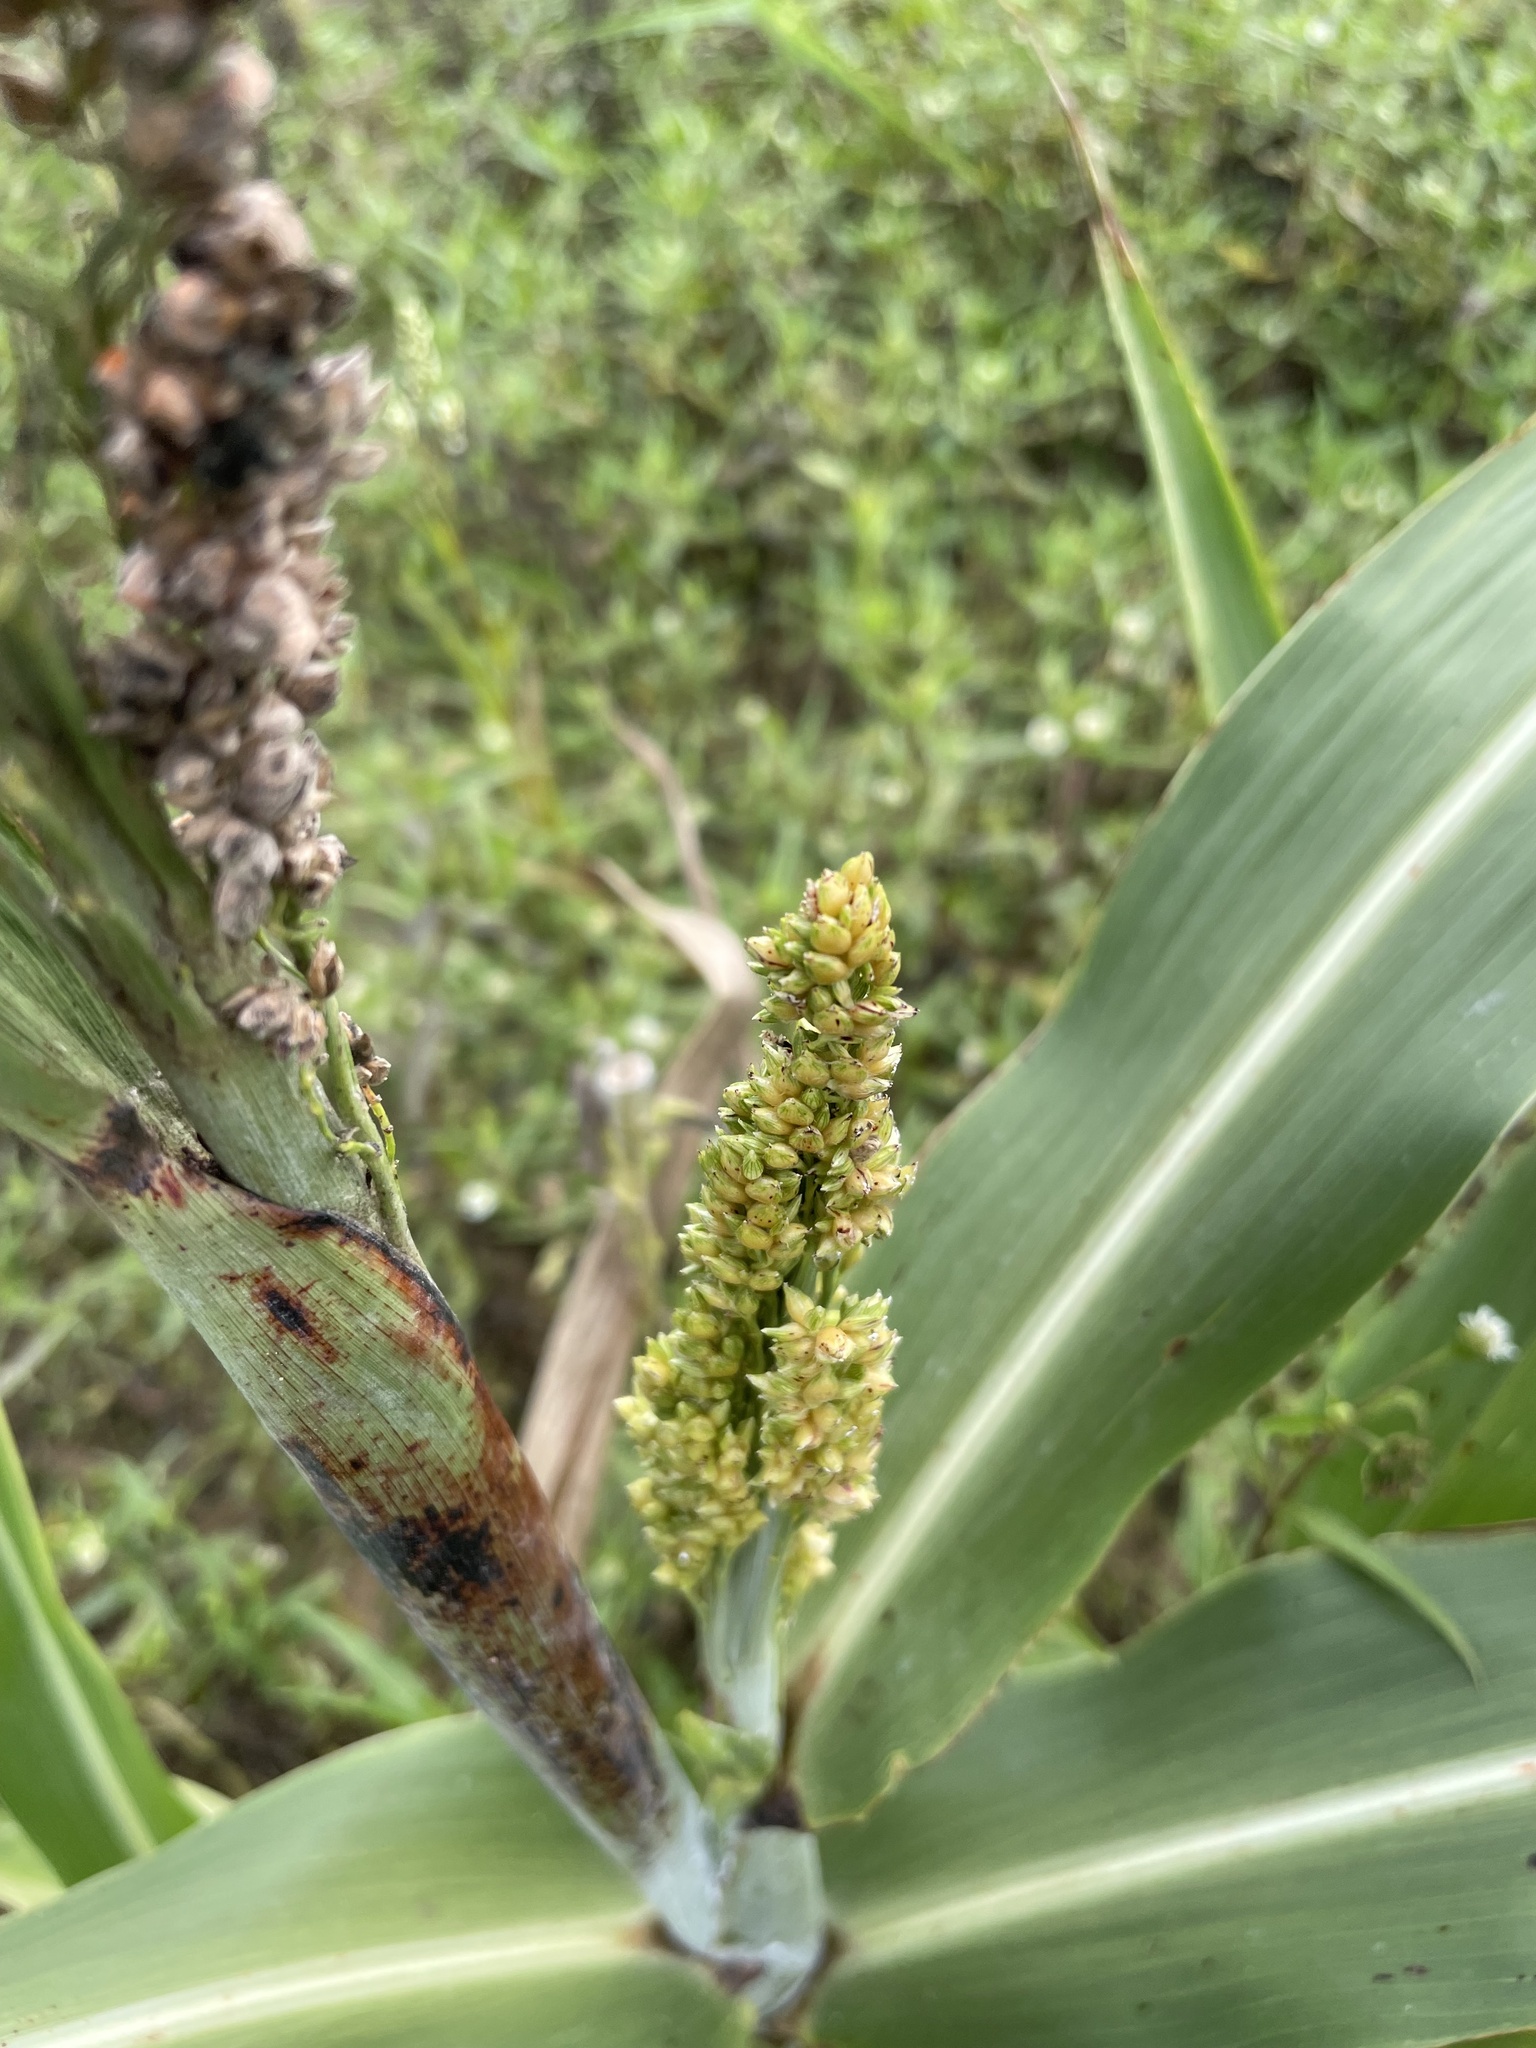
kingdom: Plantae
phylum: Tracheophyta
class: Liliopsida
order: Poales
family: Poaceae
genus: Sorghum
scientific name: Sorghum bicolor
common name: Sorghum
